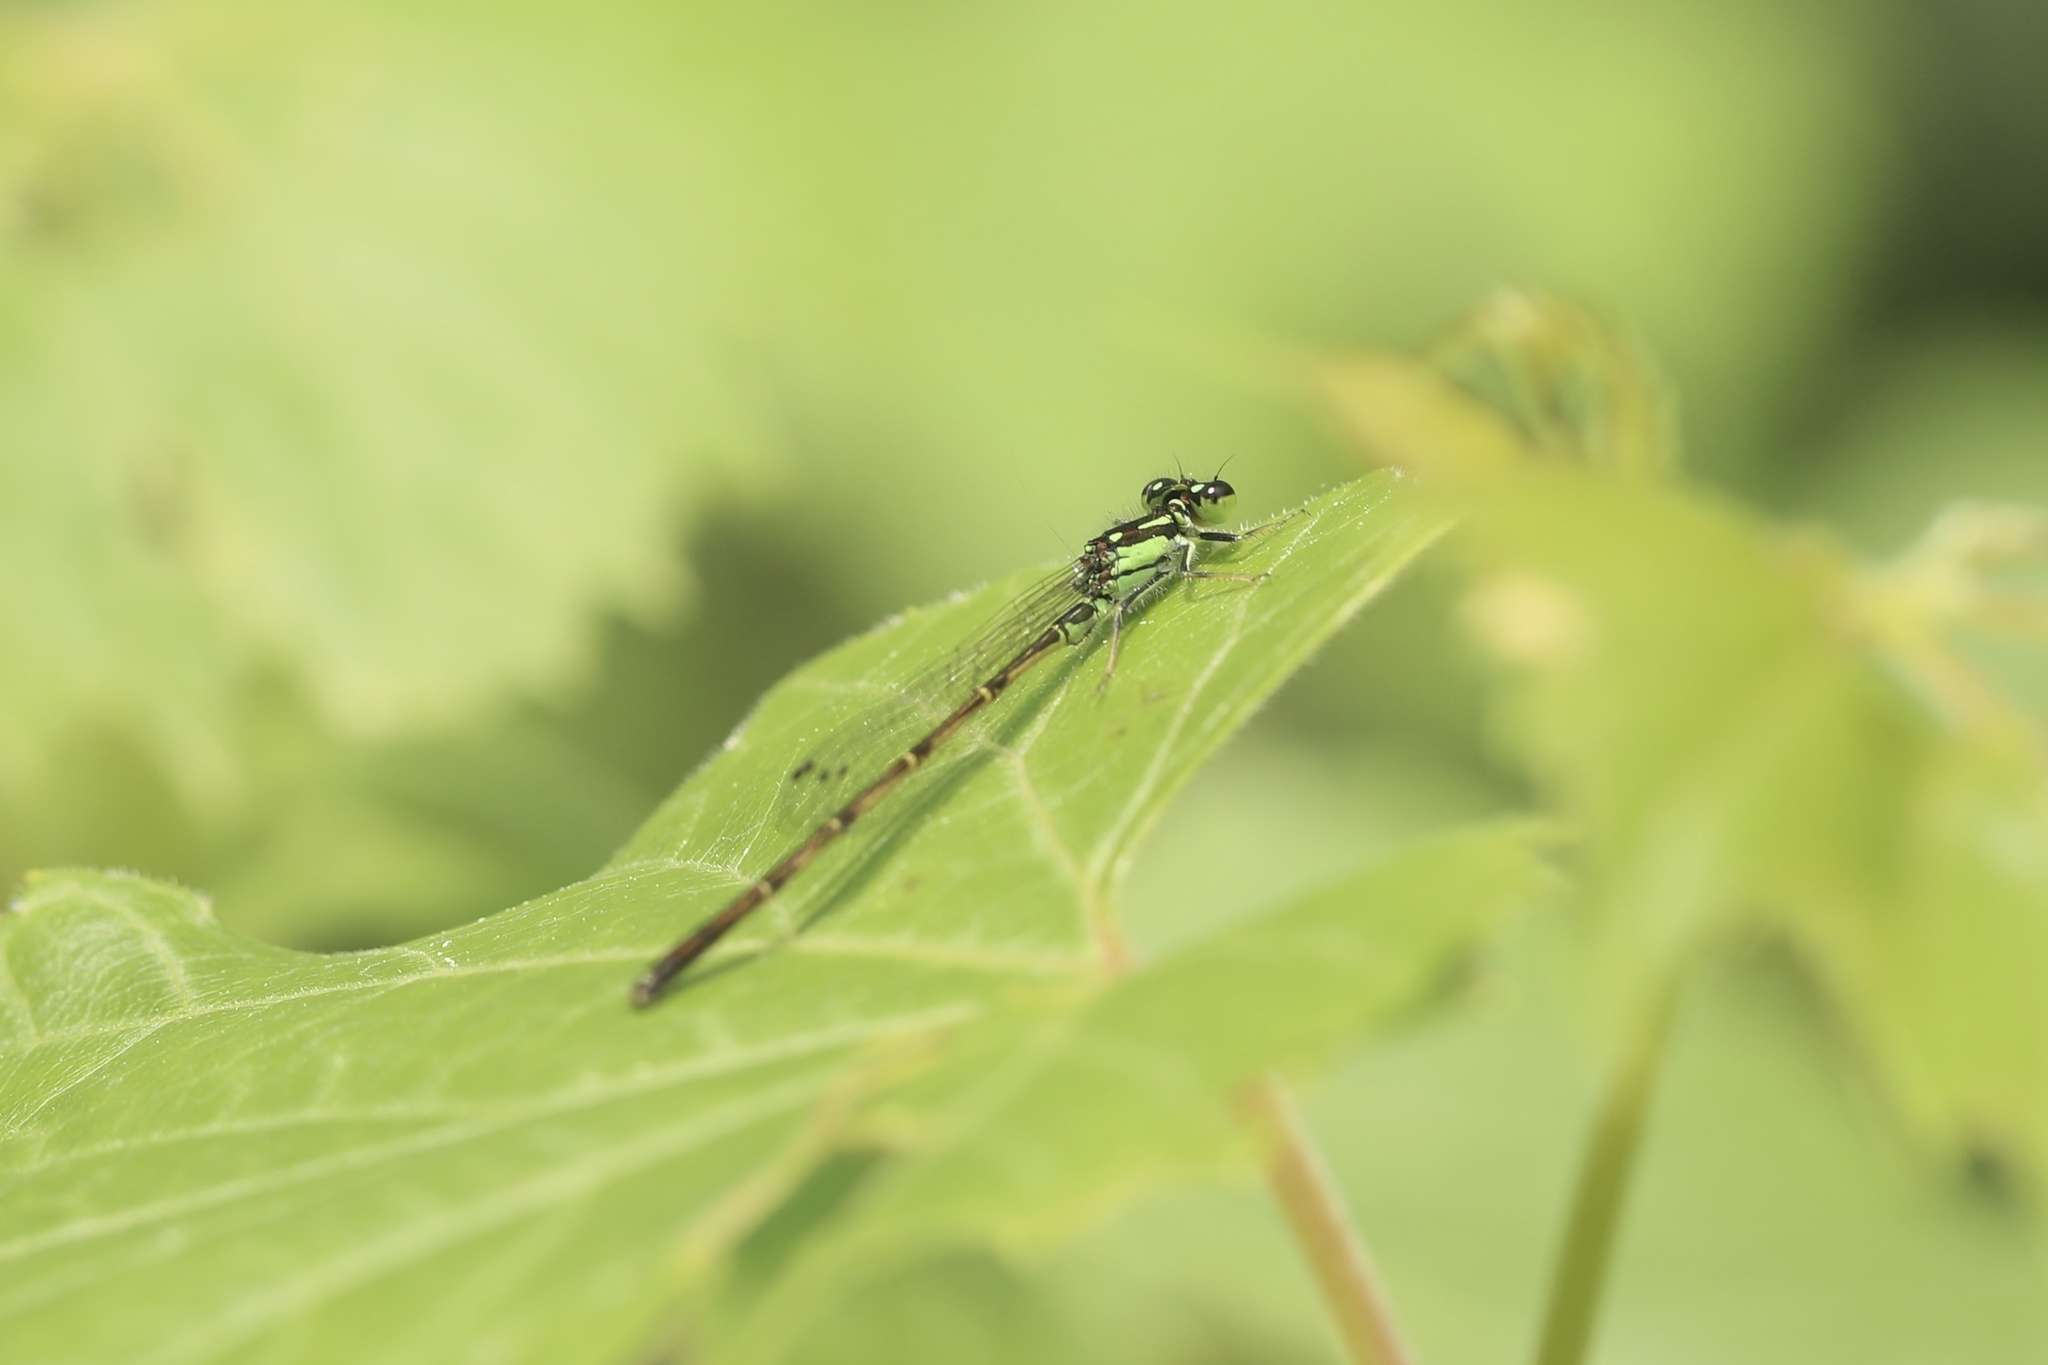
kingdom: Animalia
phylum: Arthropoda
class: Insecta
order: Odonata
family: Coenagrionidae
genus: Ischnura
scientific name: Ischnura posita
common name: Fragile forktail
